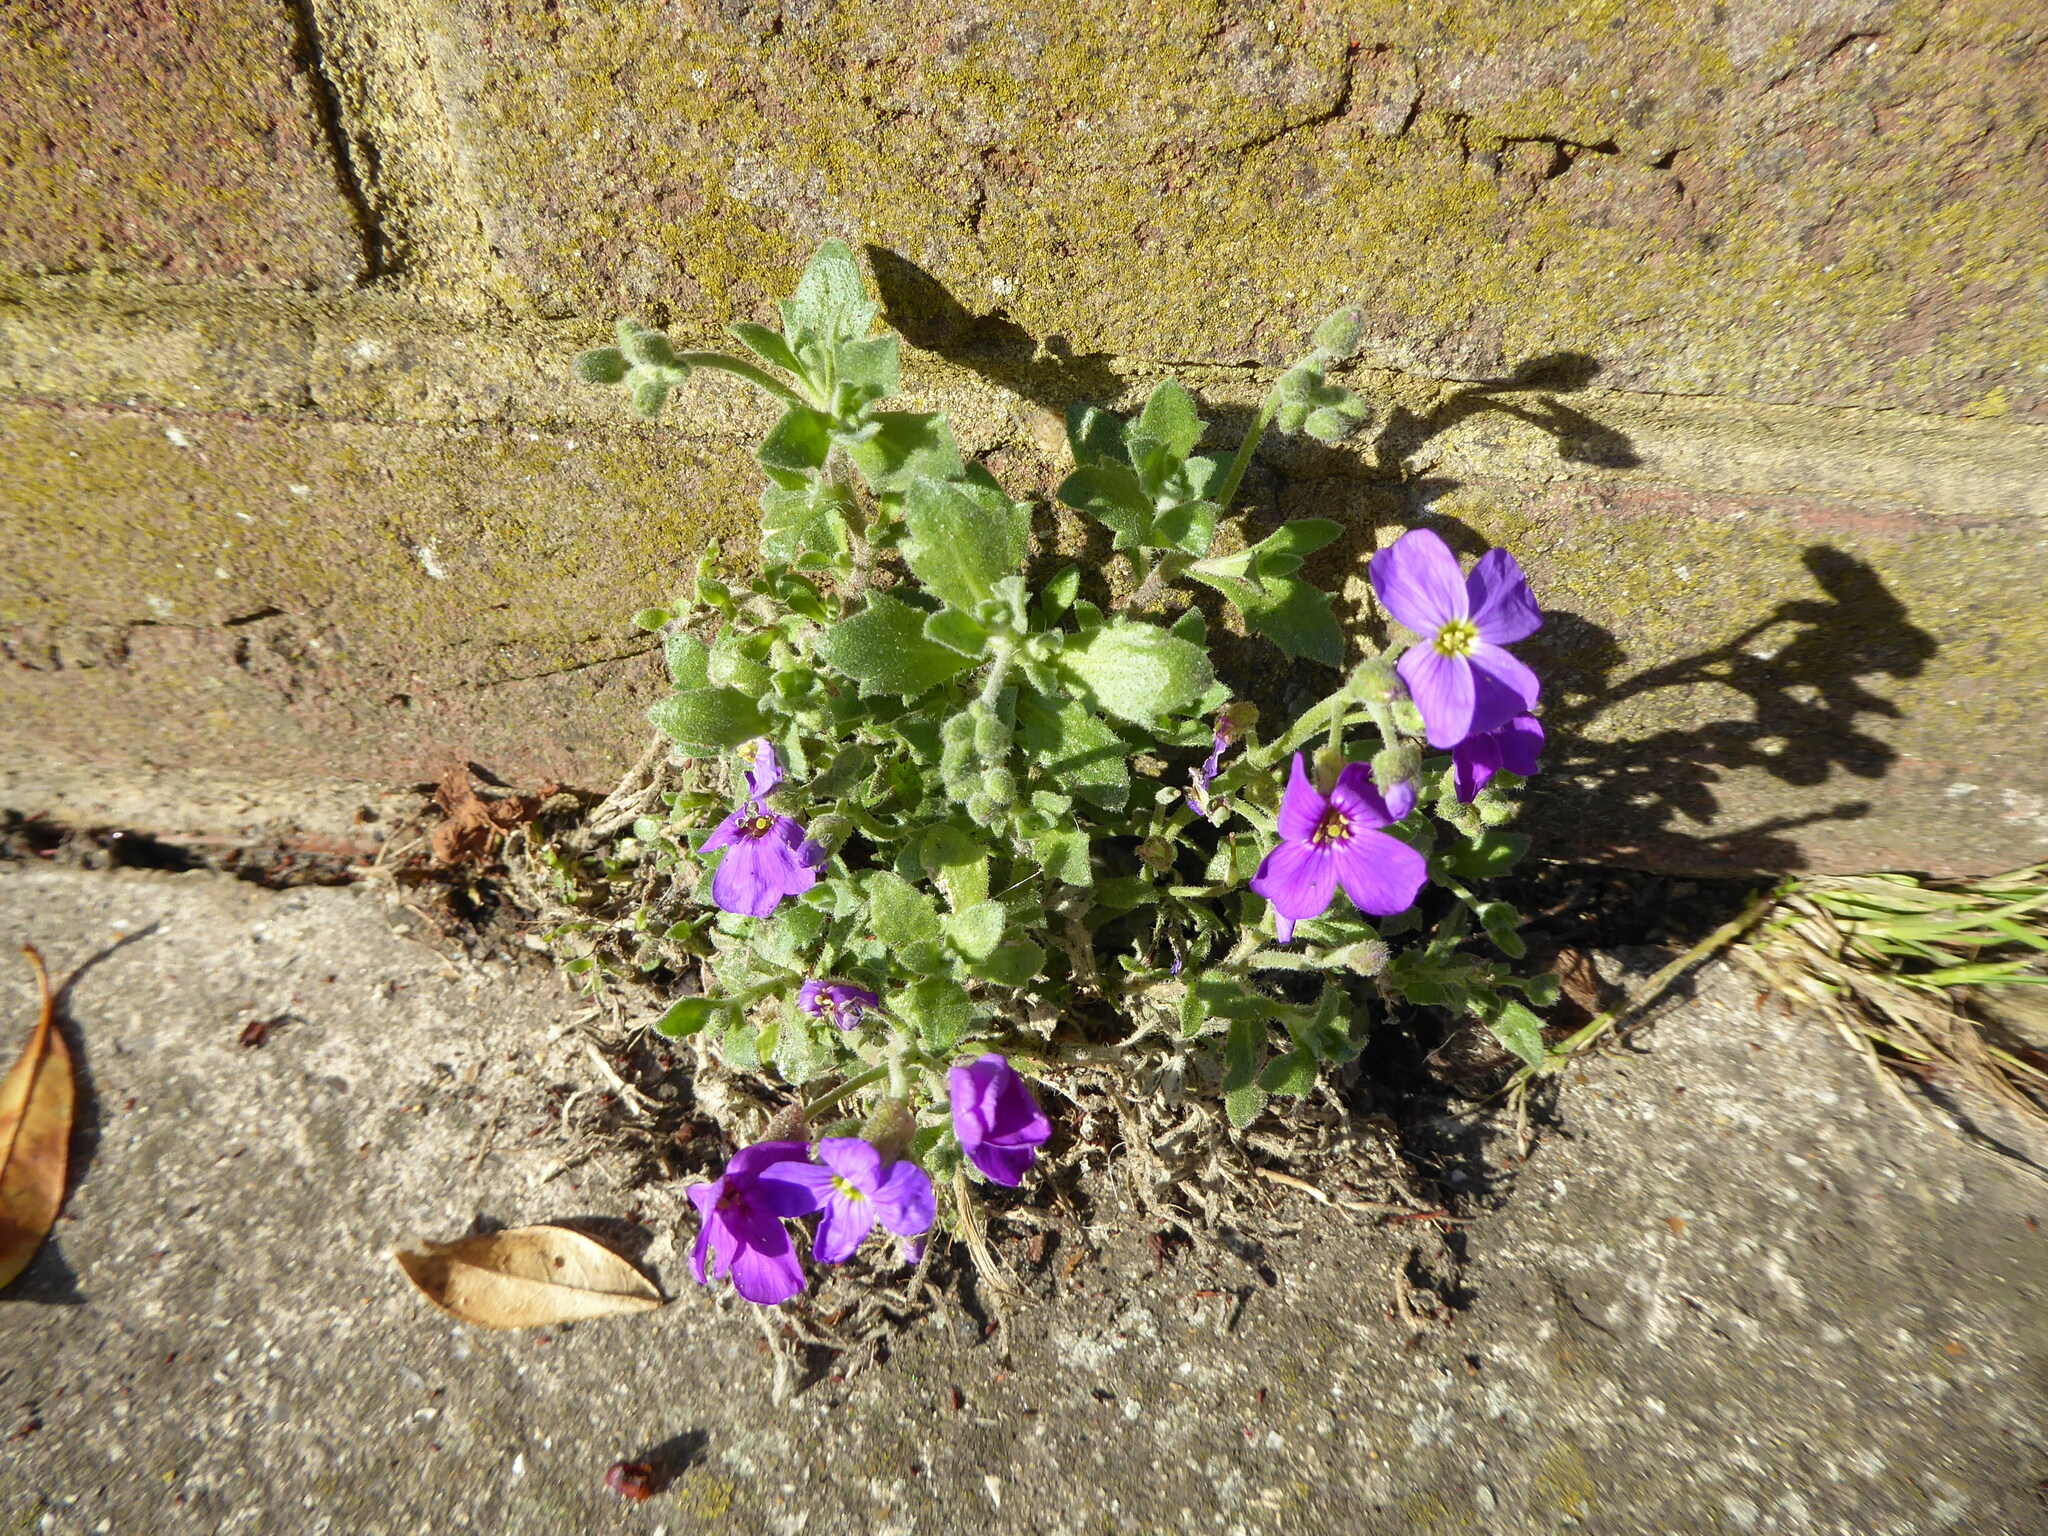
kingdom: Plantae
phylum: Tracheophyta
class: Magnoliopsida
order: Brassicales
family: Brassicaceae
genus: Aubrieta
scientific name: Aubrieta deltoidea
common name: Aubretia
